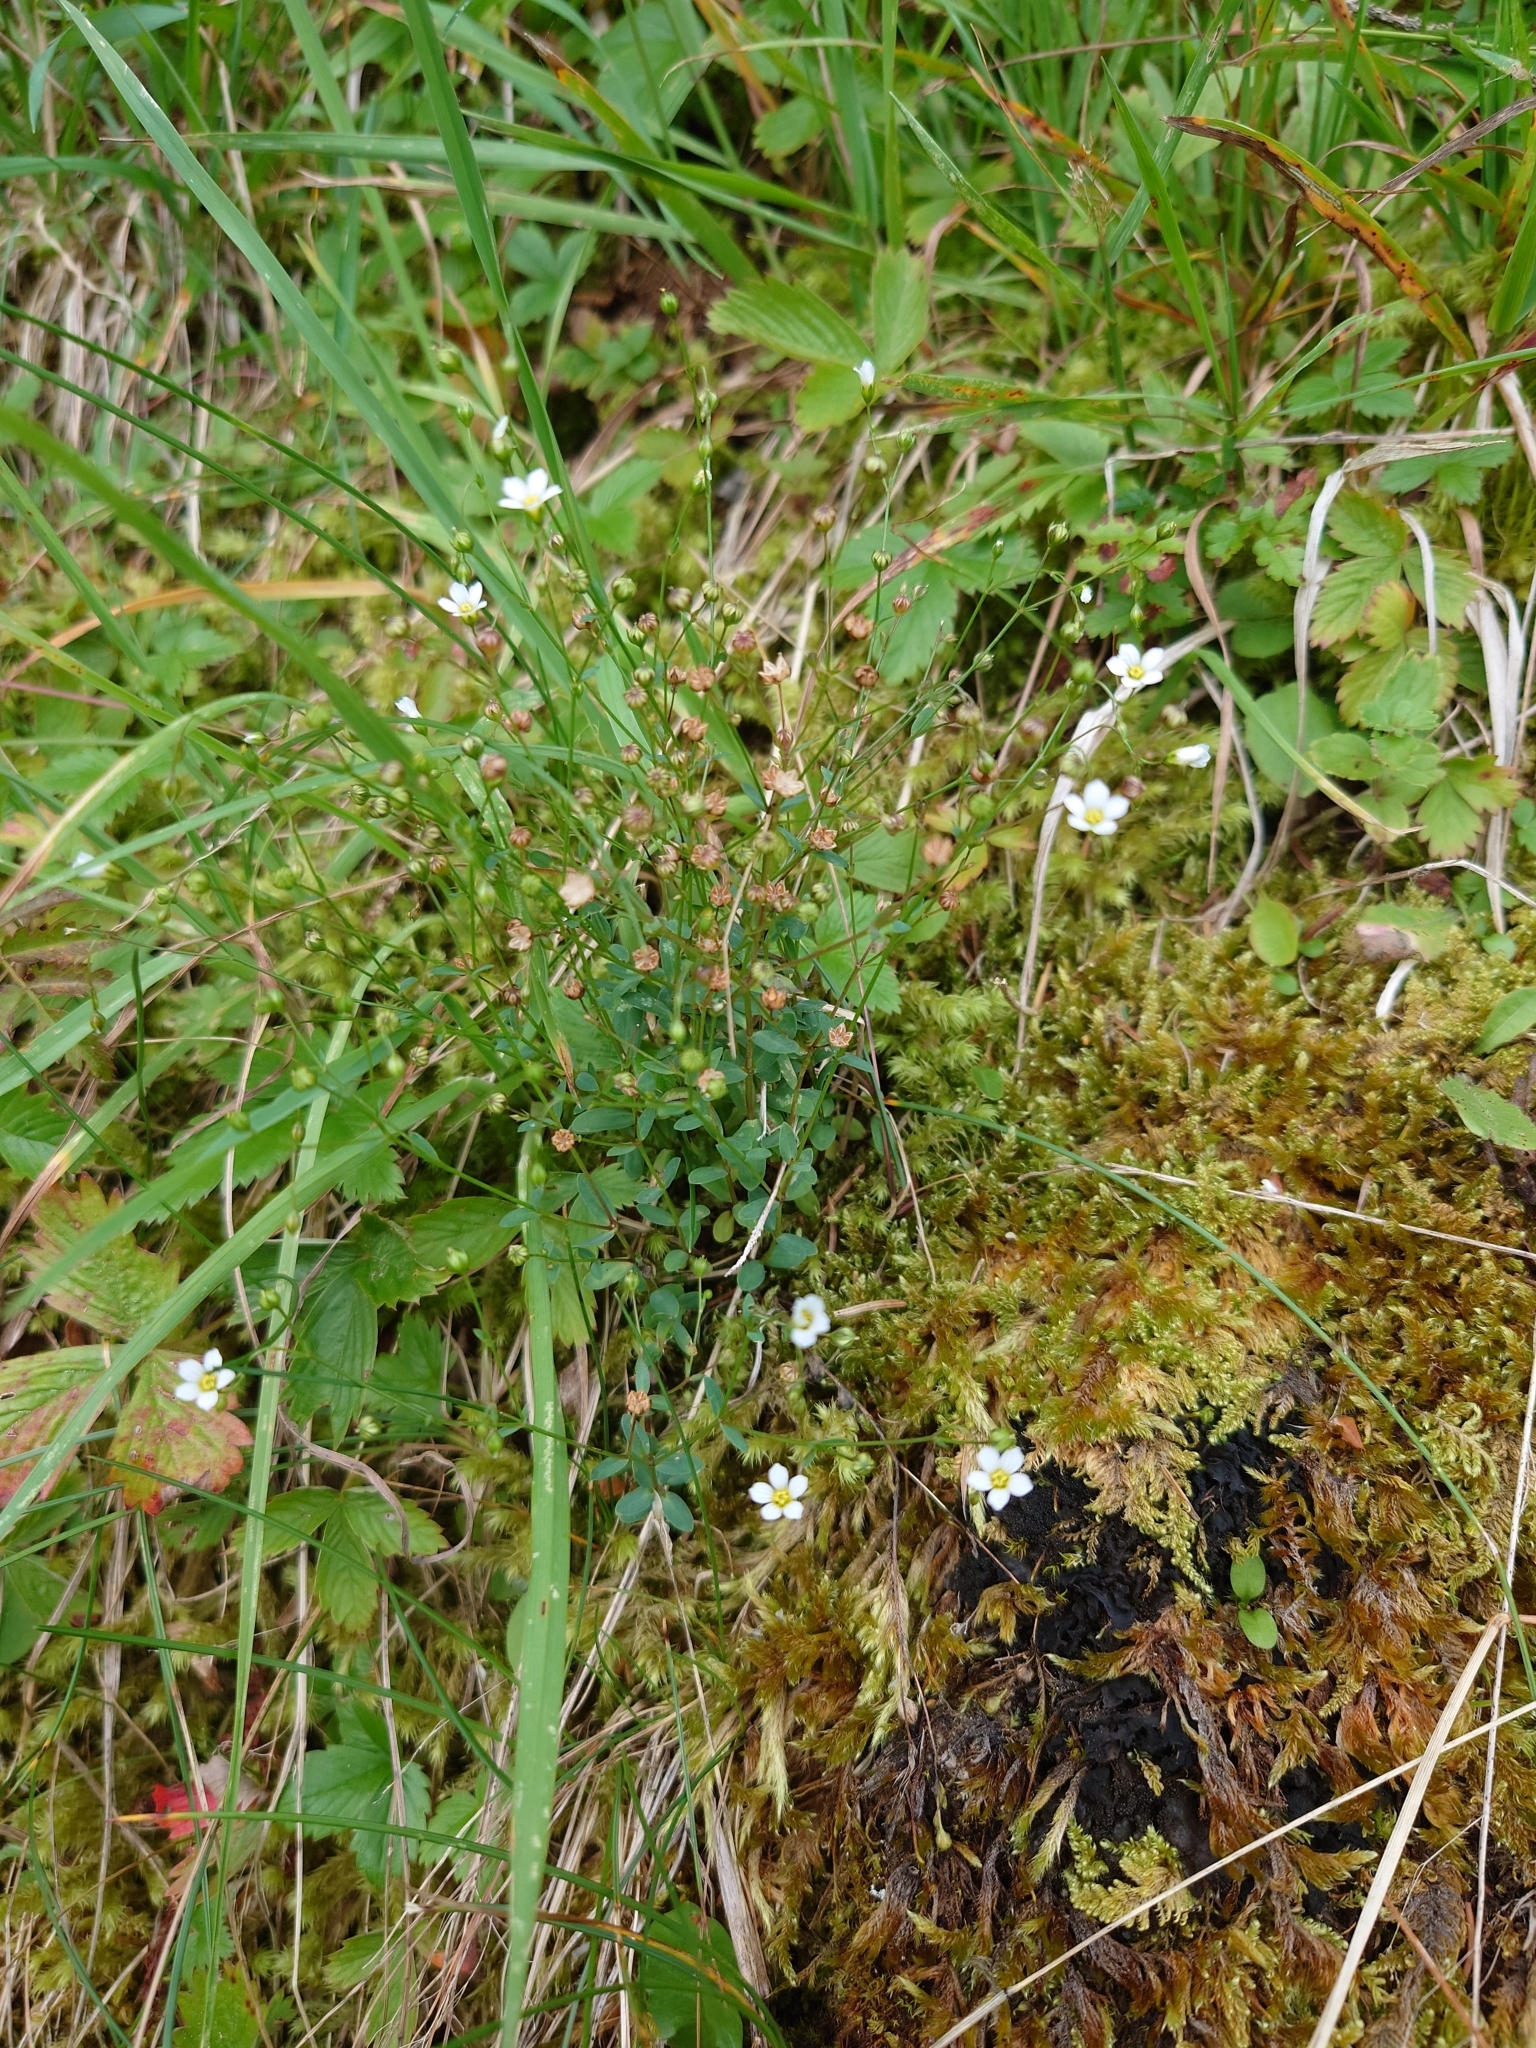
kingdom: Plantae
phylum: Tracheophyta
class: Magnoliopsida
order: Malpighiales
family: Linaceae
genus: Linum
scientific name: Linum catharticum
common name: Fairy flax
